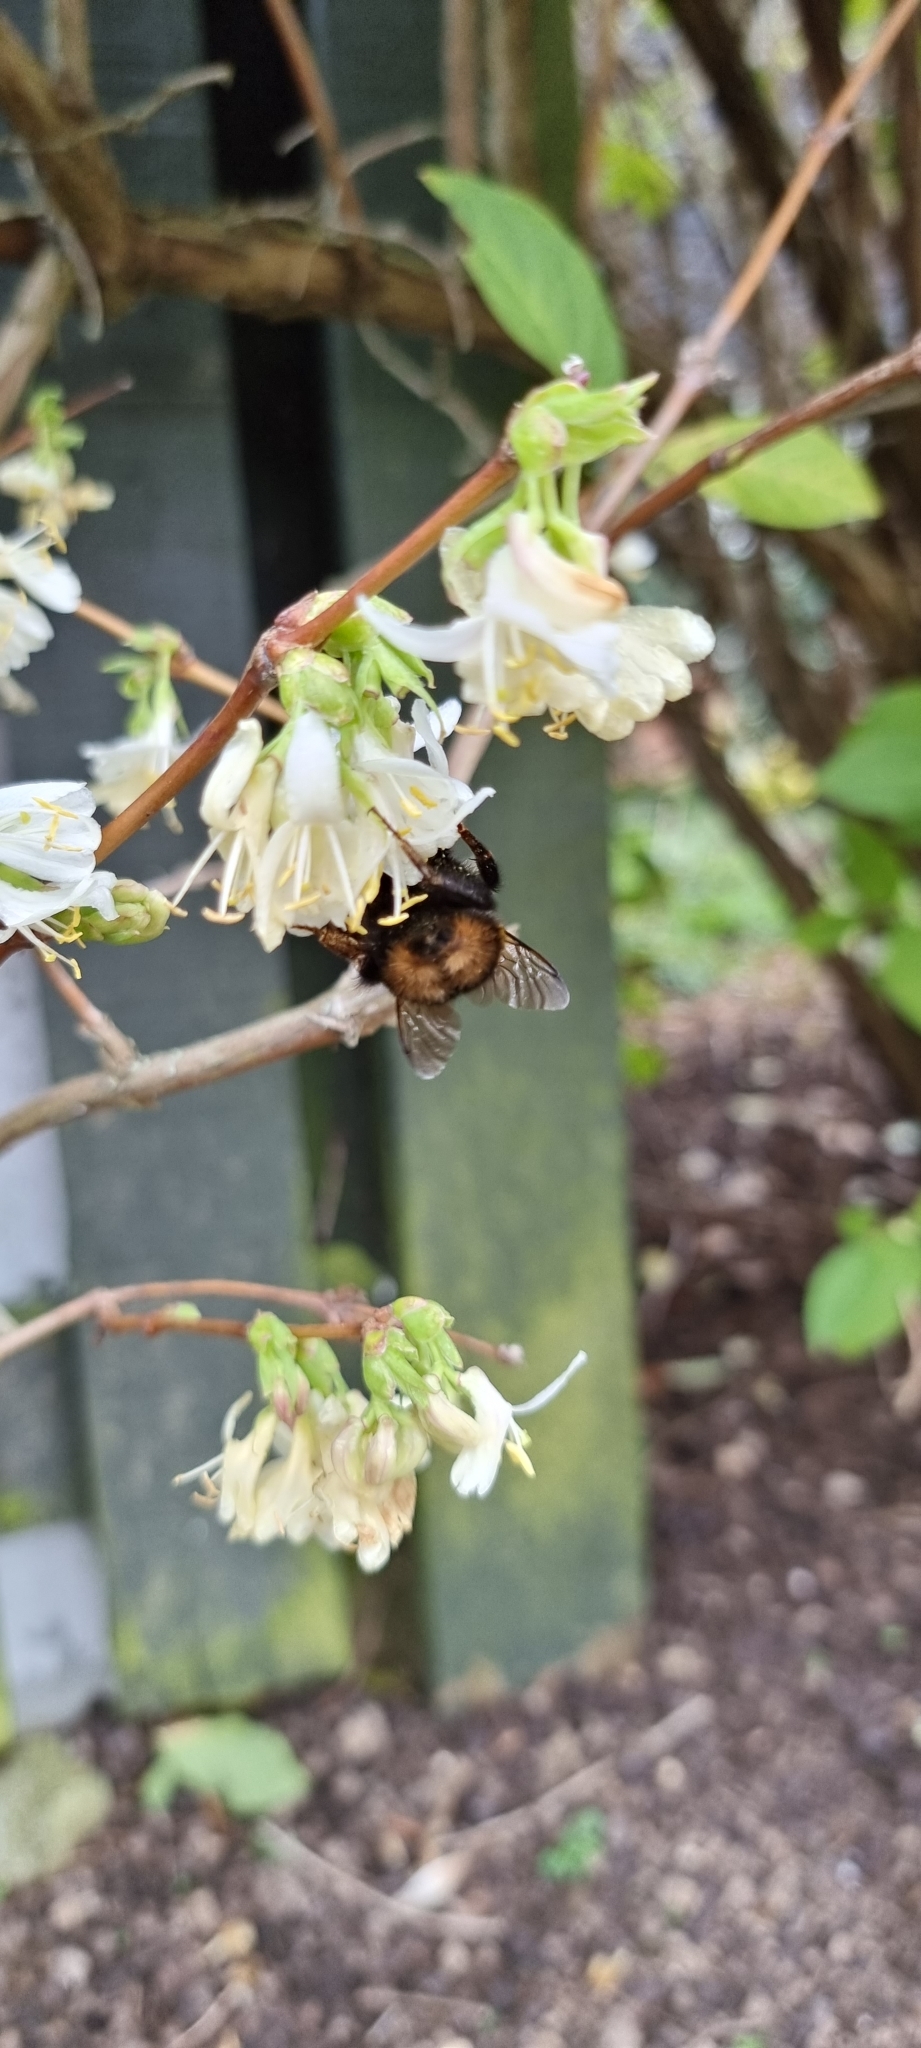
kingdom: Animalia
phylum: Arthropoda
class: Insecta
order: Hymenoptera
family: Apidae
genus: Bombus
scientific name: Bombus terrestris
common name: Buff-tailed bumblebee
